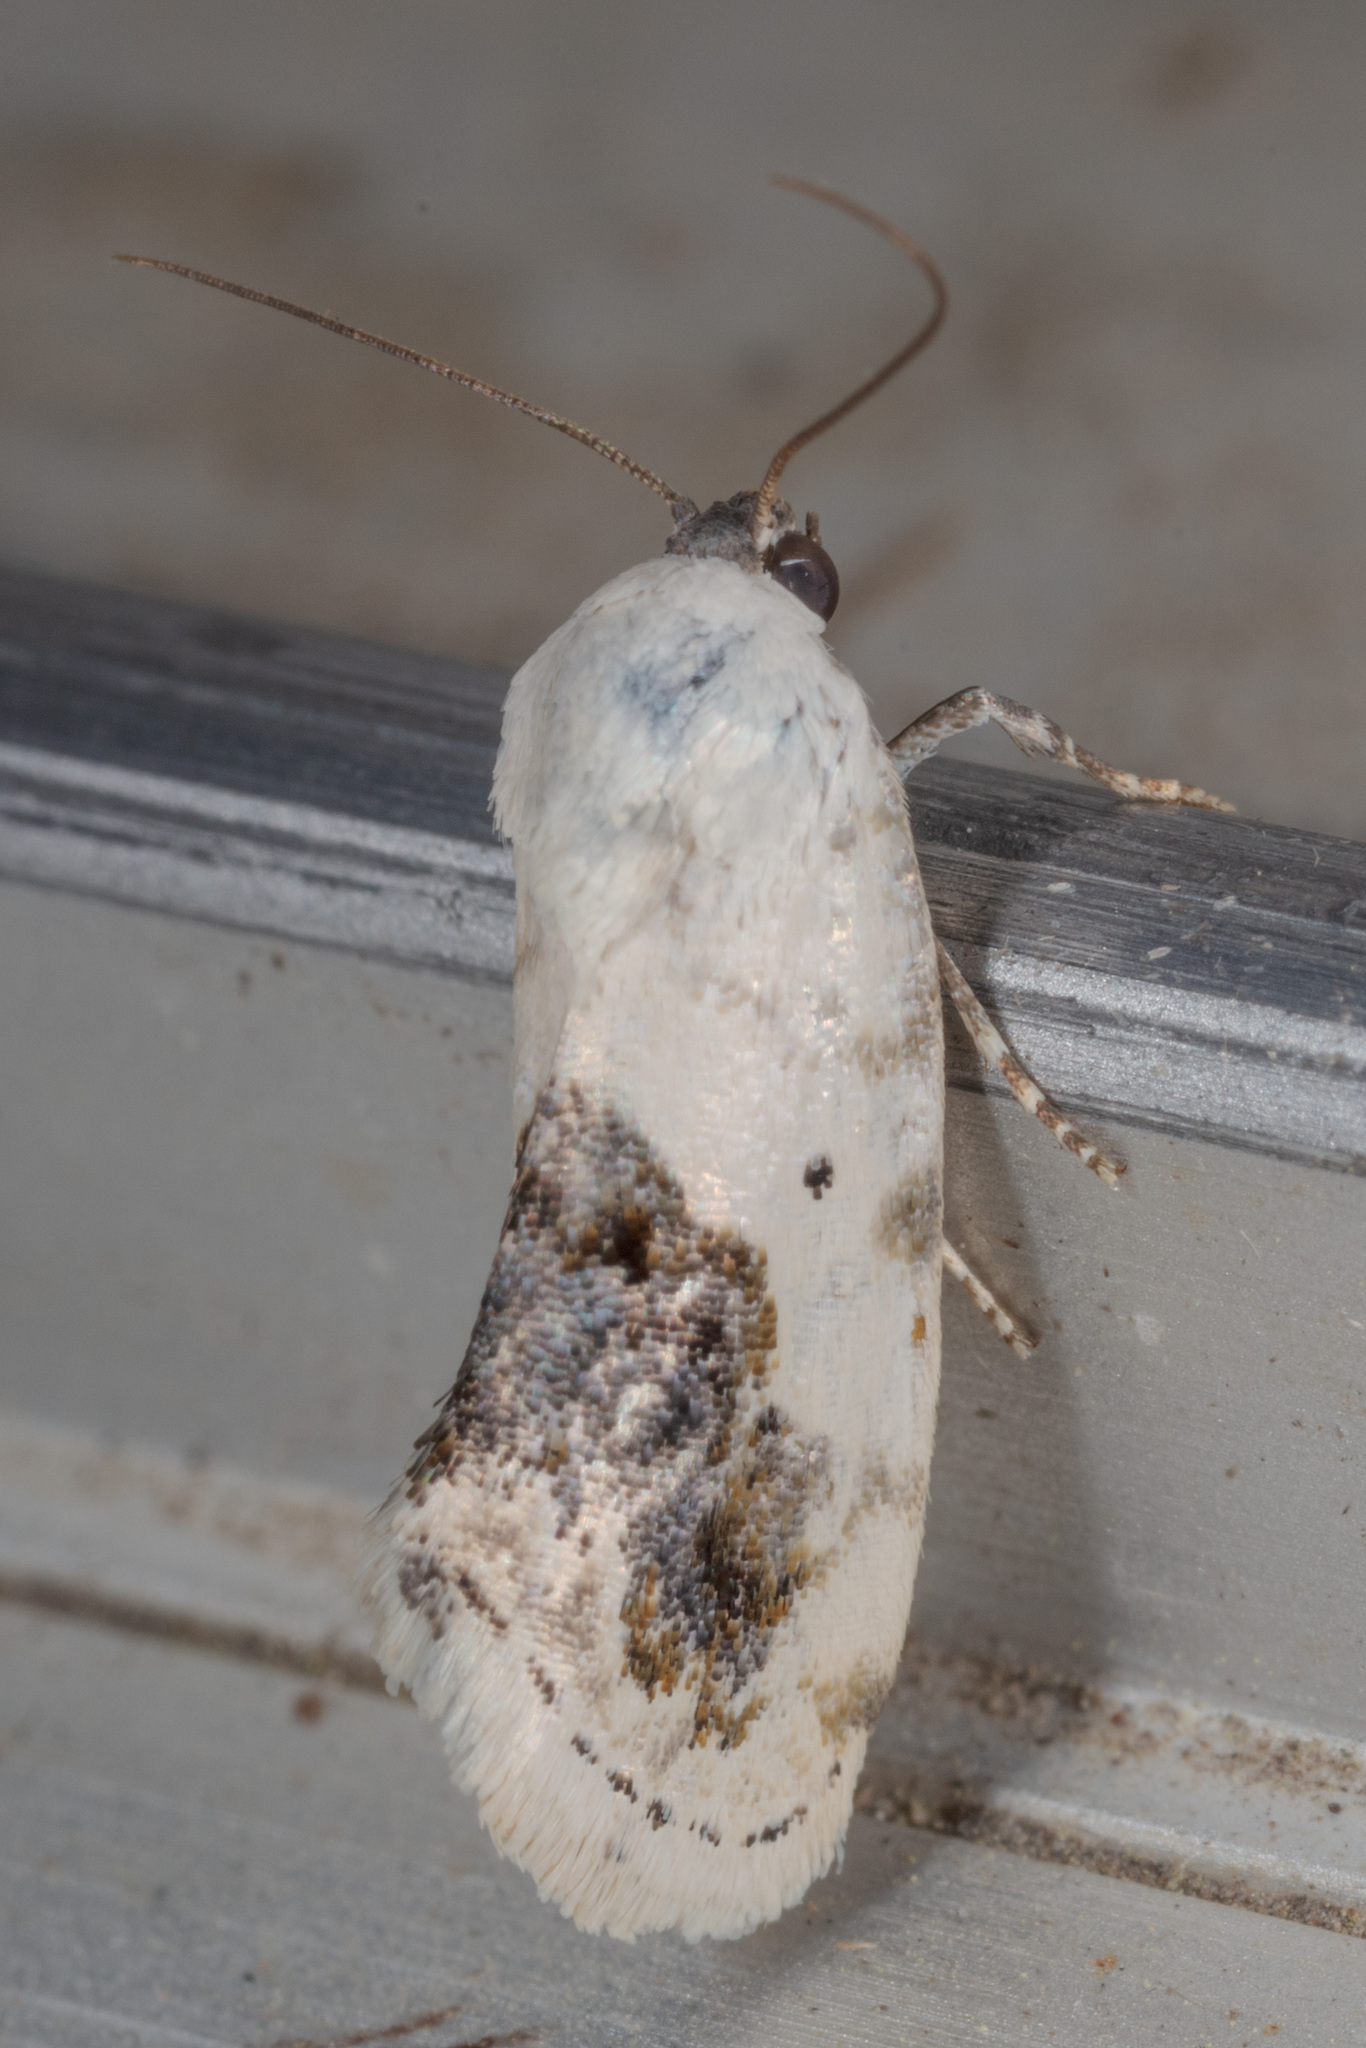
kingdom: Animalia
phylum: Arthropoda
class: Insecta
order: Lepidoptera
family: Noctuidae
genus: Acontia
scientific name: Acontia erastrioides
